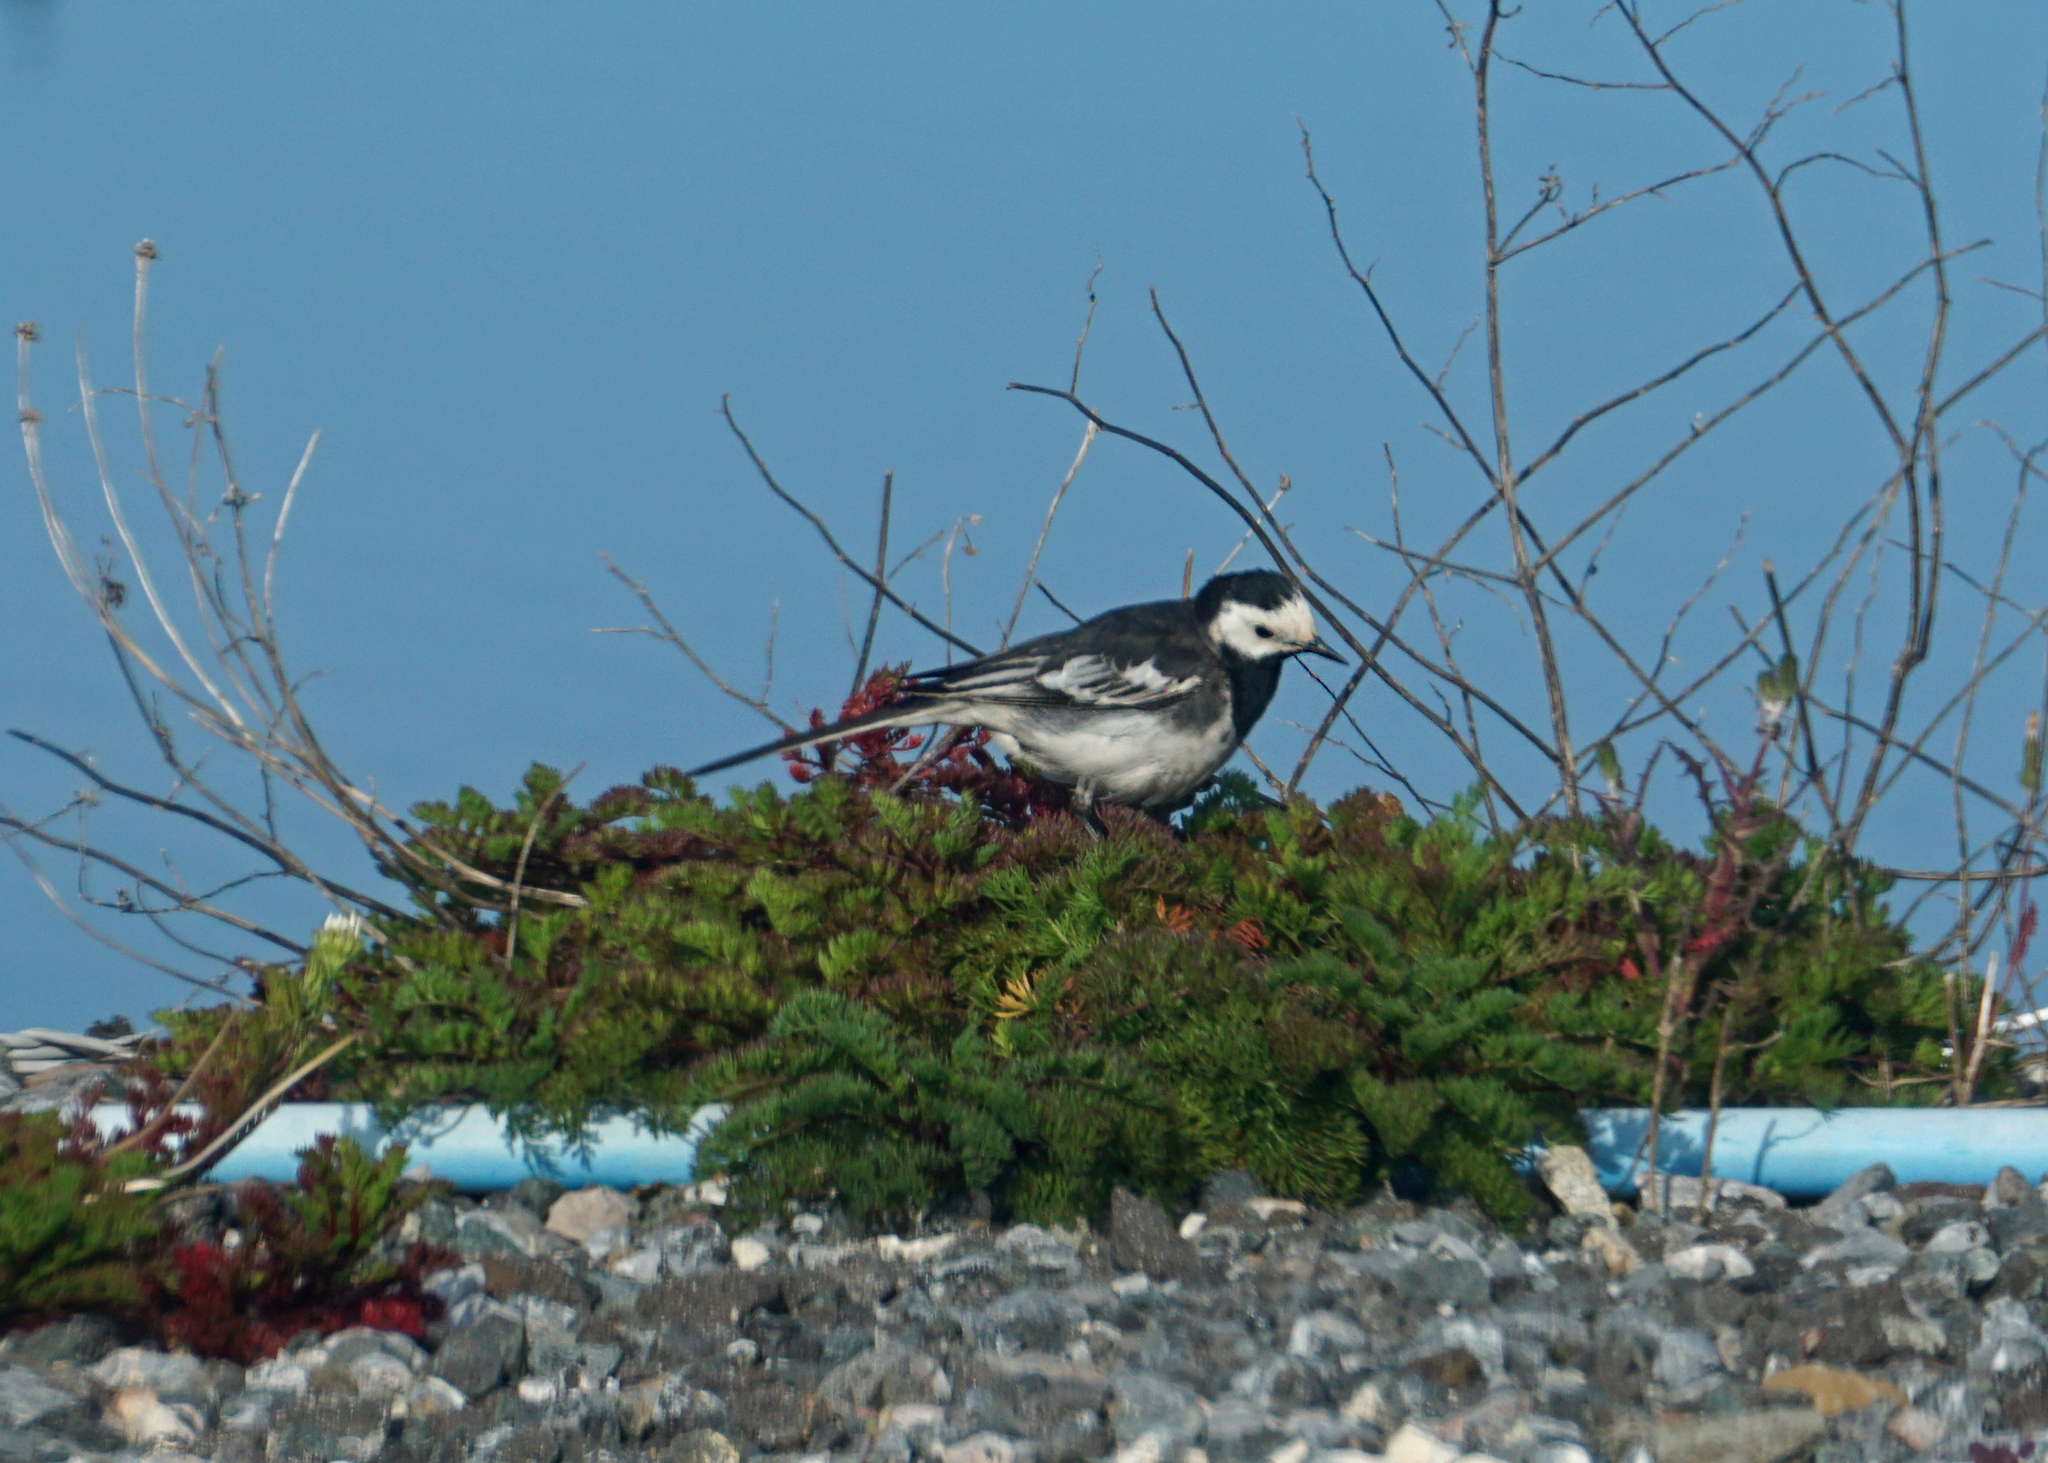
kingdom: Animalia
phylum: Chordata
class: Aves
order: Passeriformes
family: Motacillidae
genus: Motacilla
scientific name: Motacilla alba
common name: White wagtail
